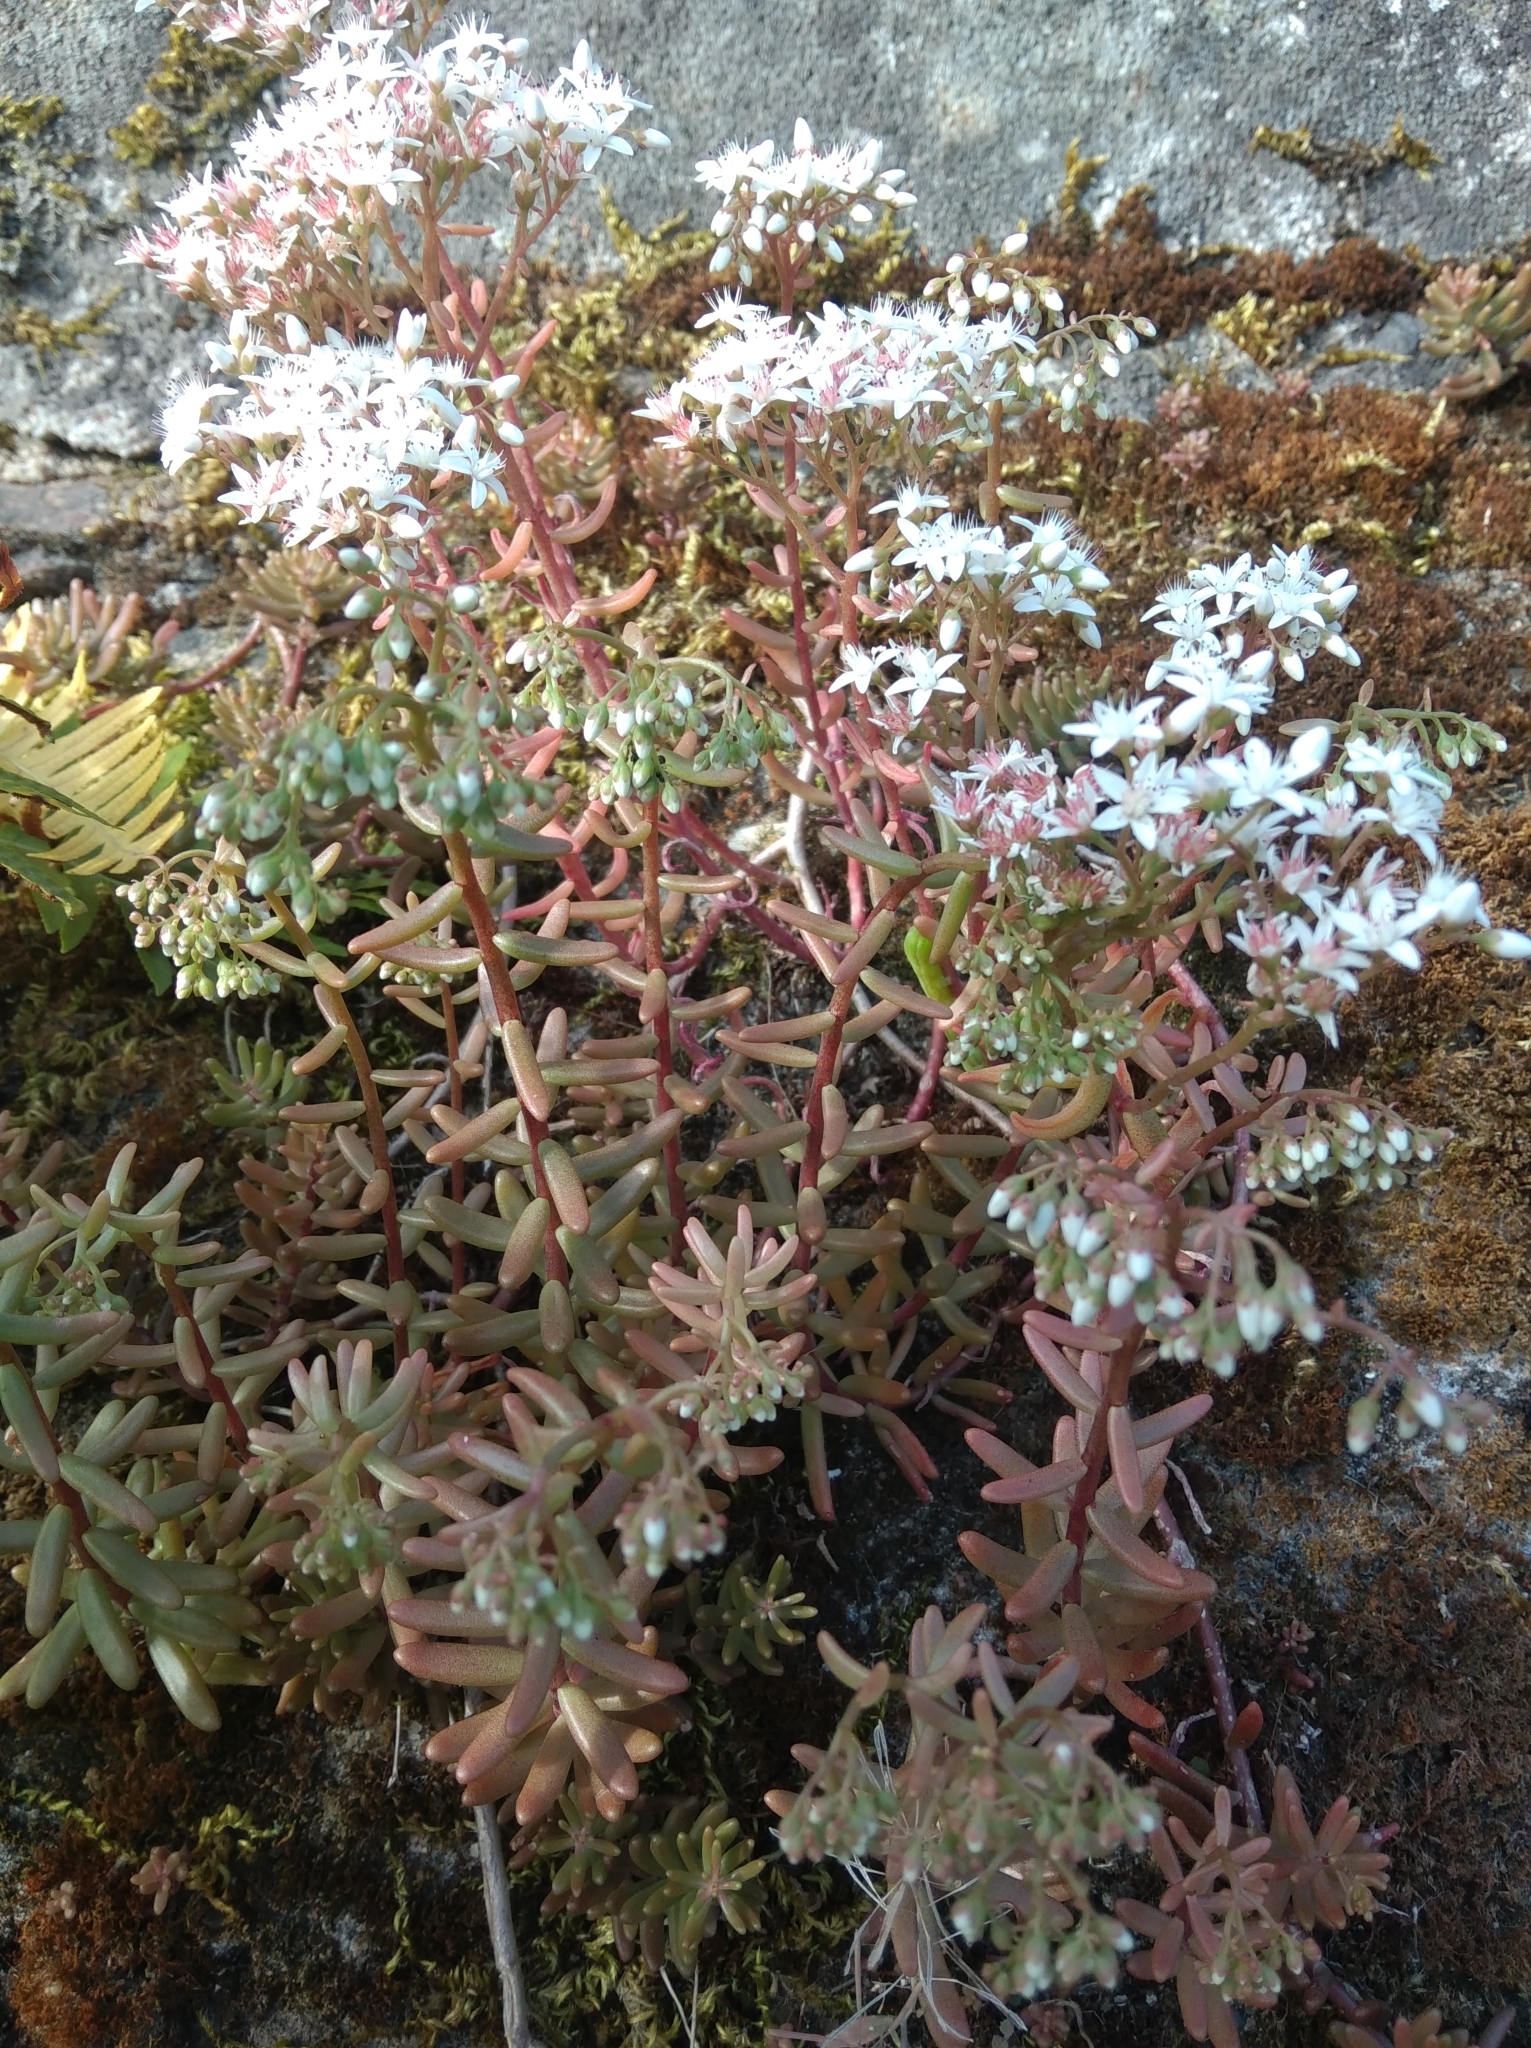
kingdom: Plantae
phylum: Tracheophyta
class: Magnoliopsida
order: Saxifragales
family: Crassulaceae
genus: Sedum
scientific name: Sedum album
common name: White stonecrop
